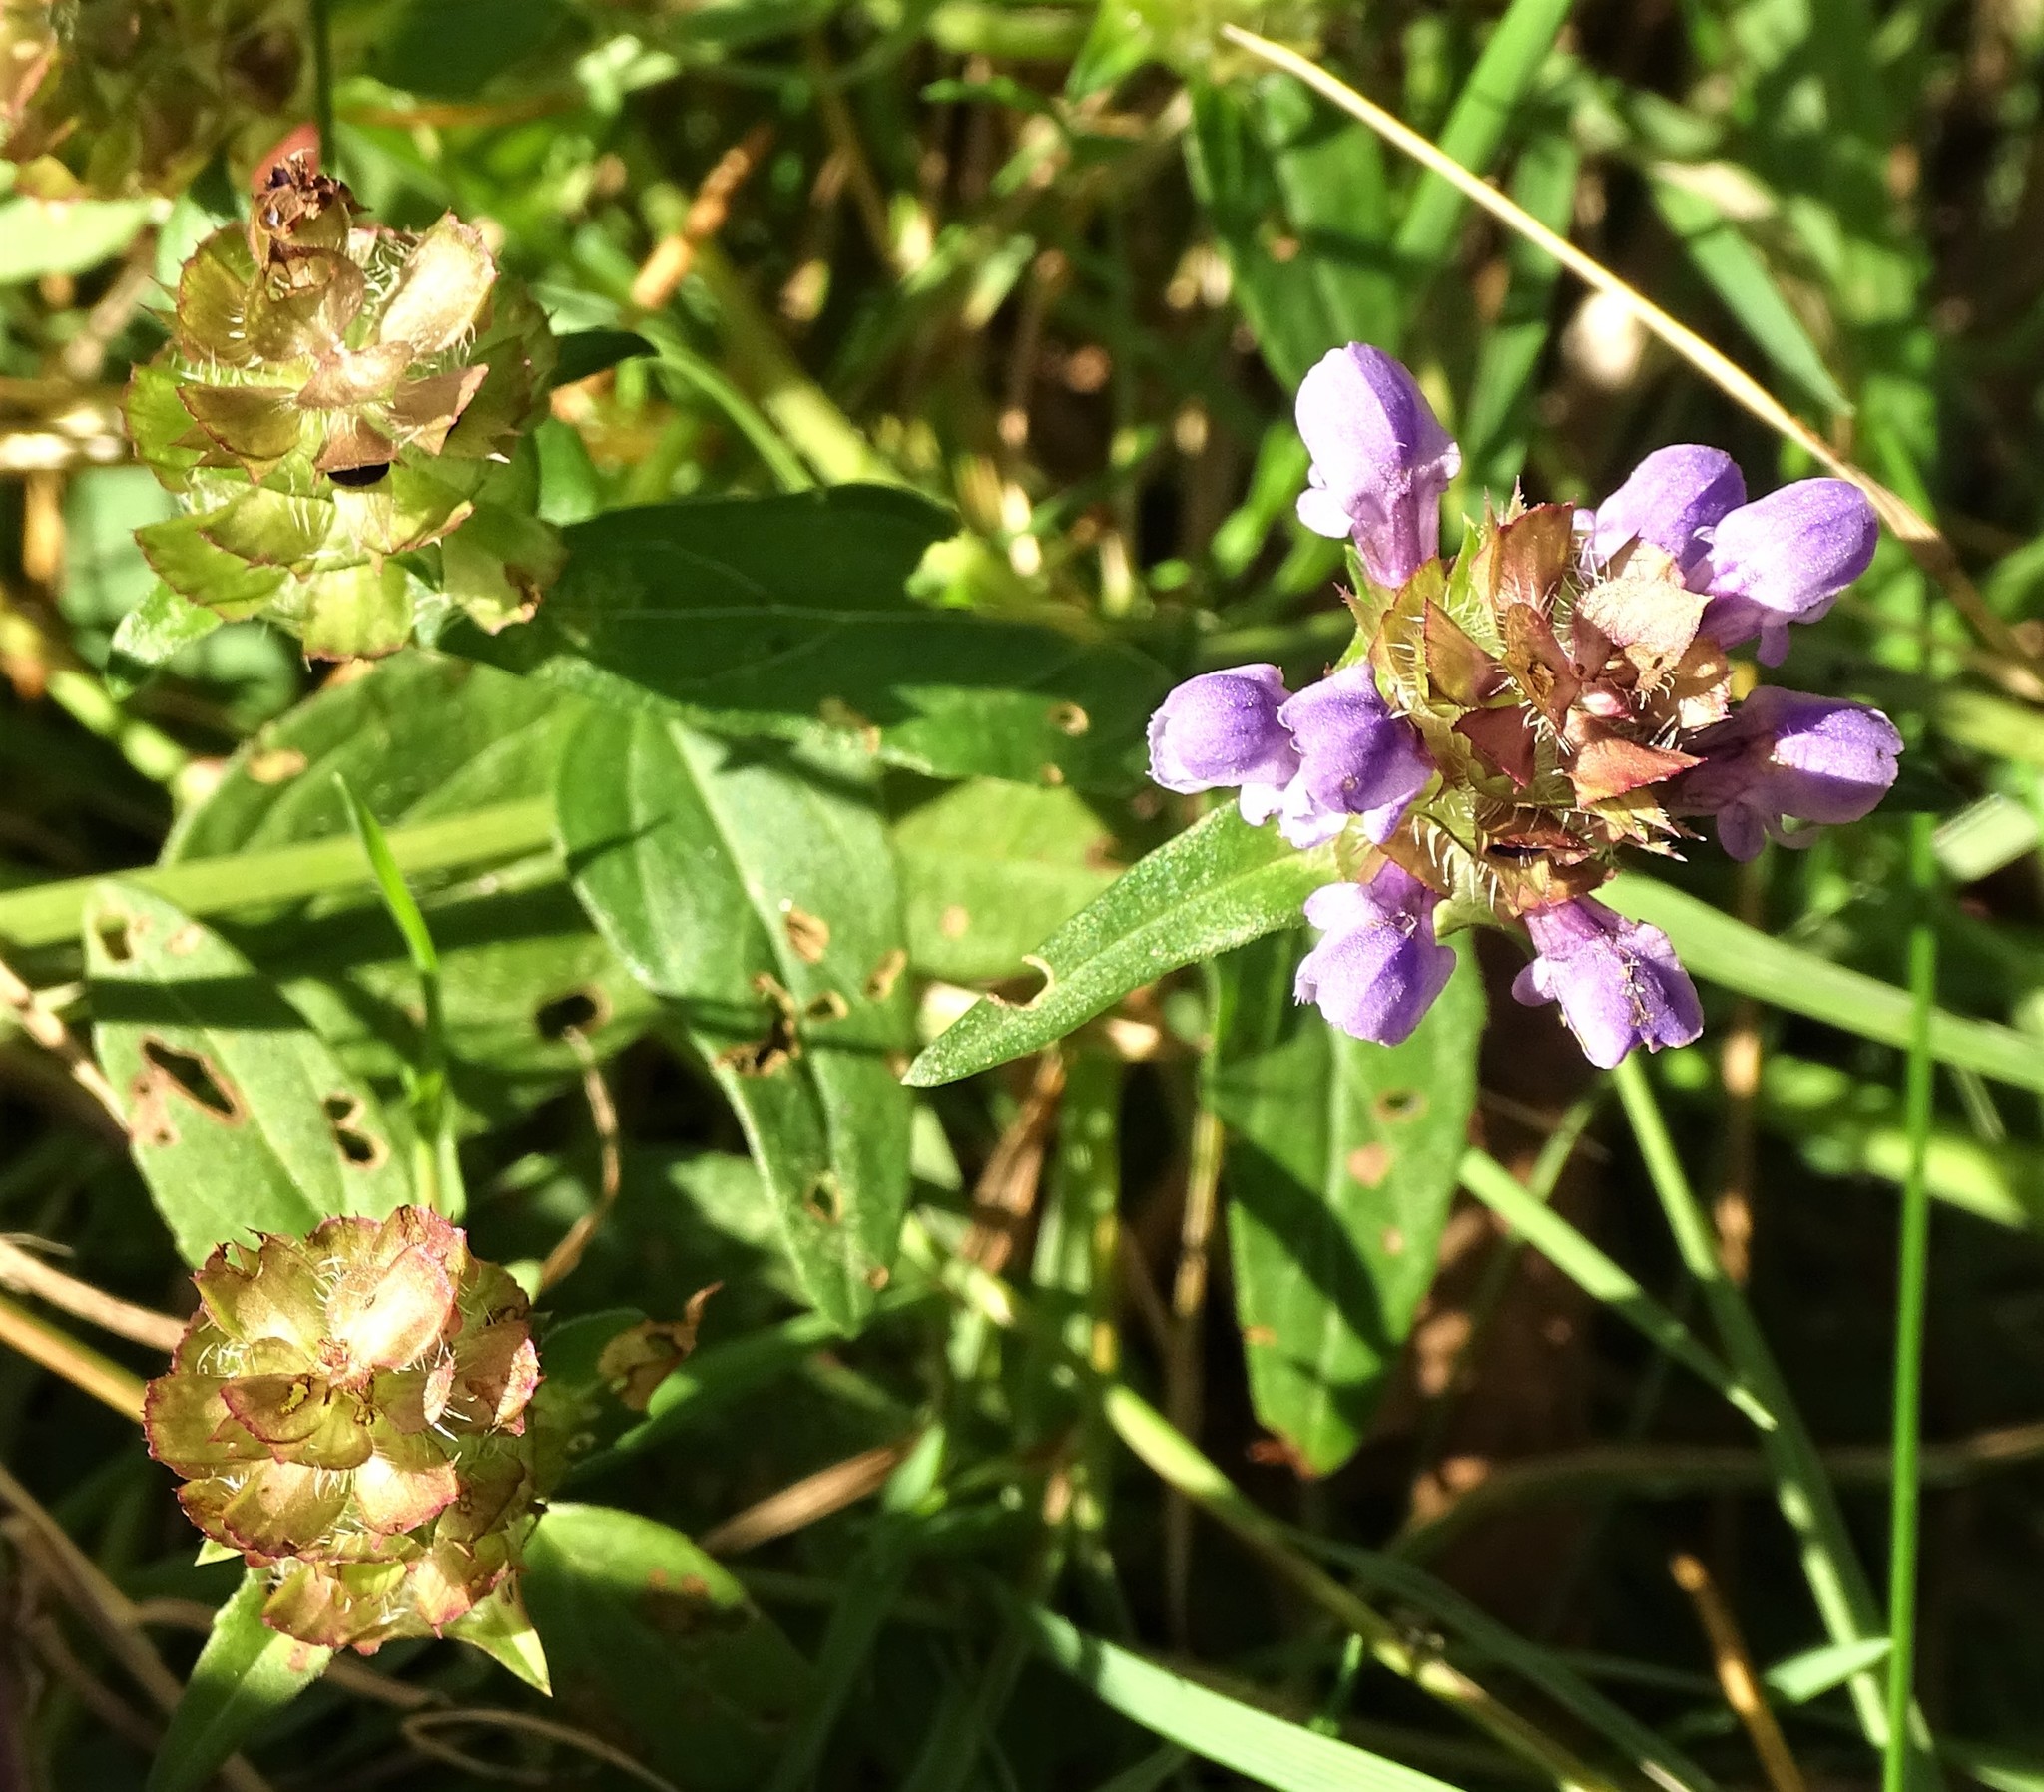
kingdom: Plantae
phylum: Tracheophyta
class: Magnoliopsida
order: Lamiales
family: Lamiaceae
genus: Prunella
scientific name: Prunella vulgaris
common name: Heal-all
